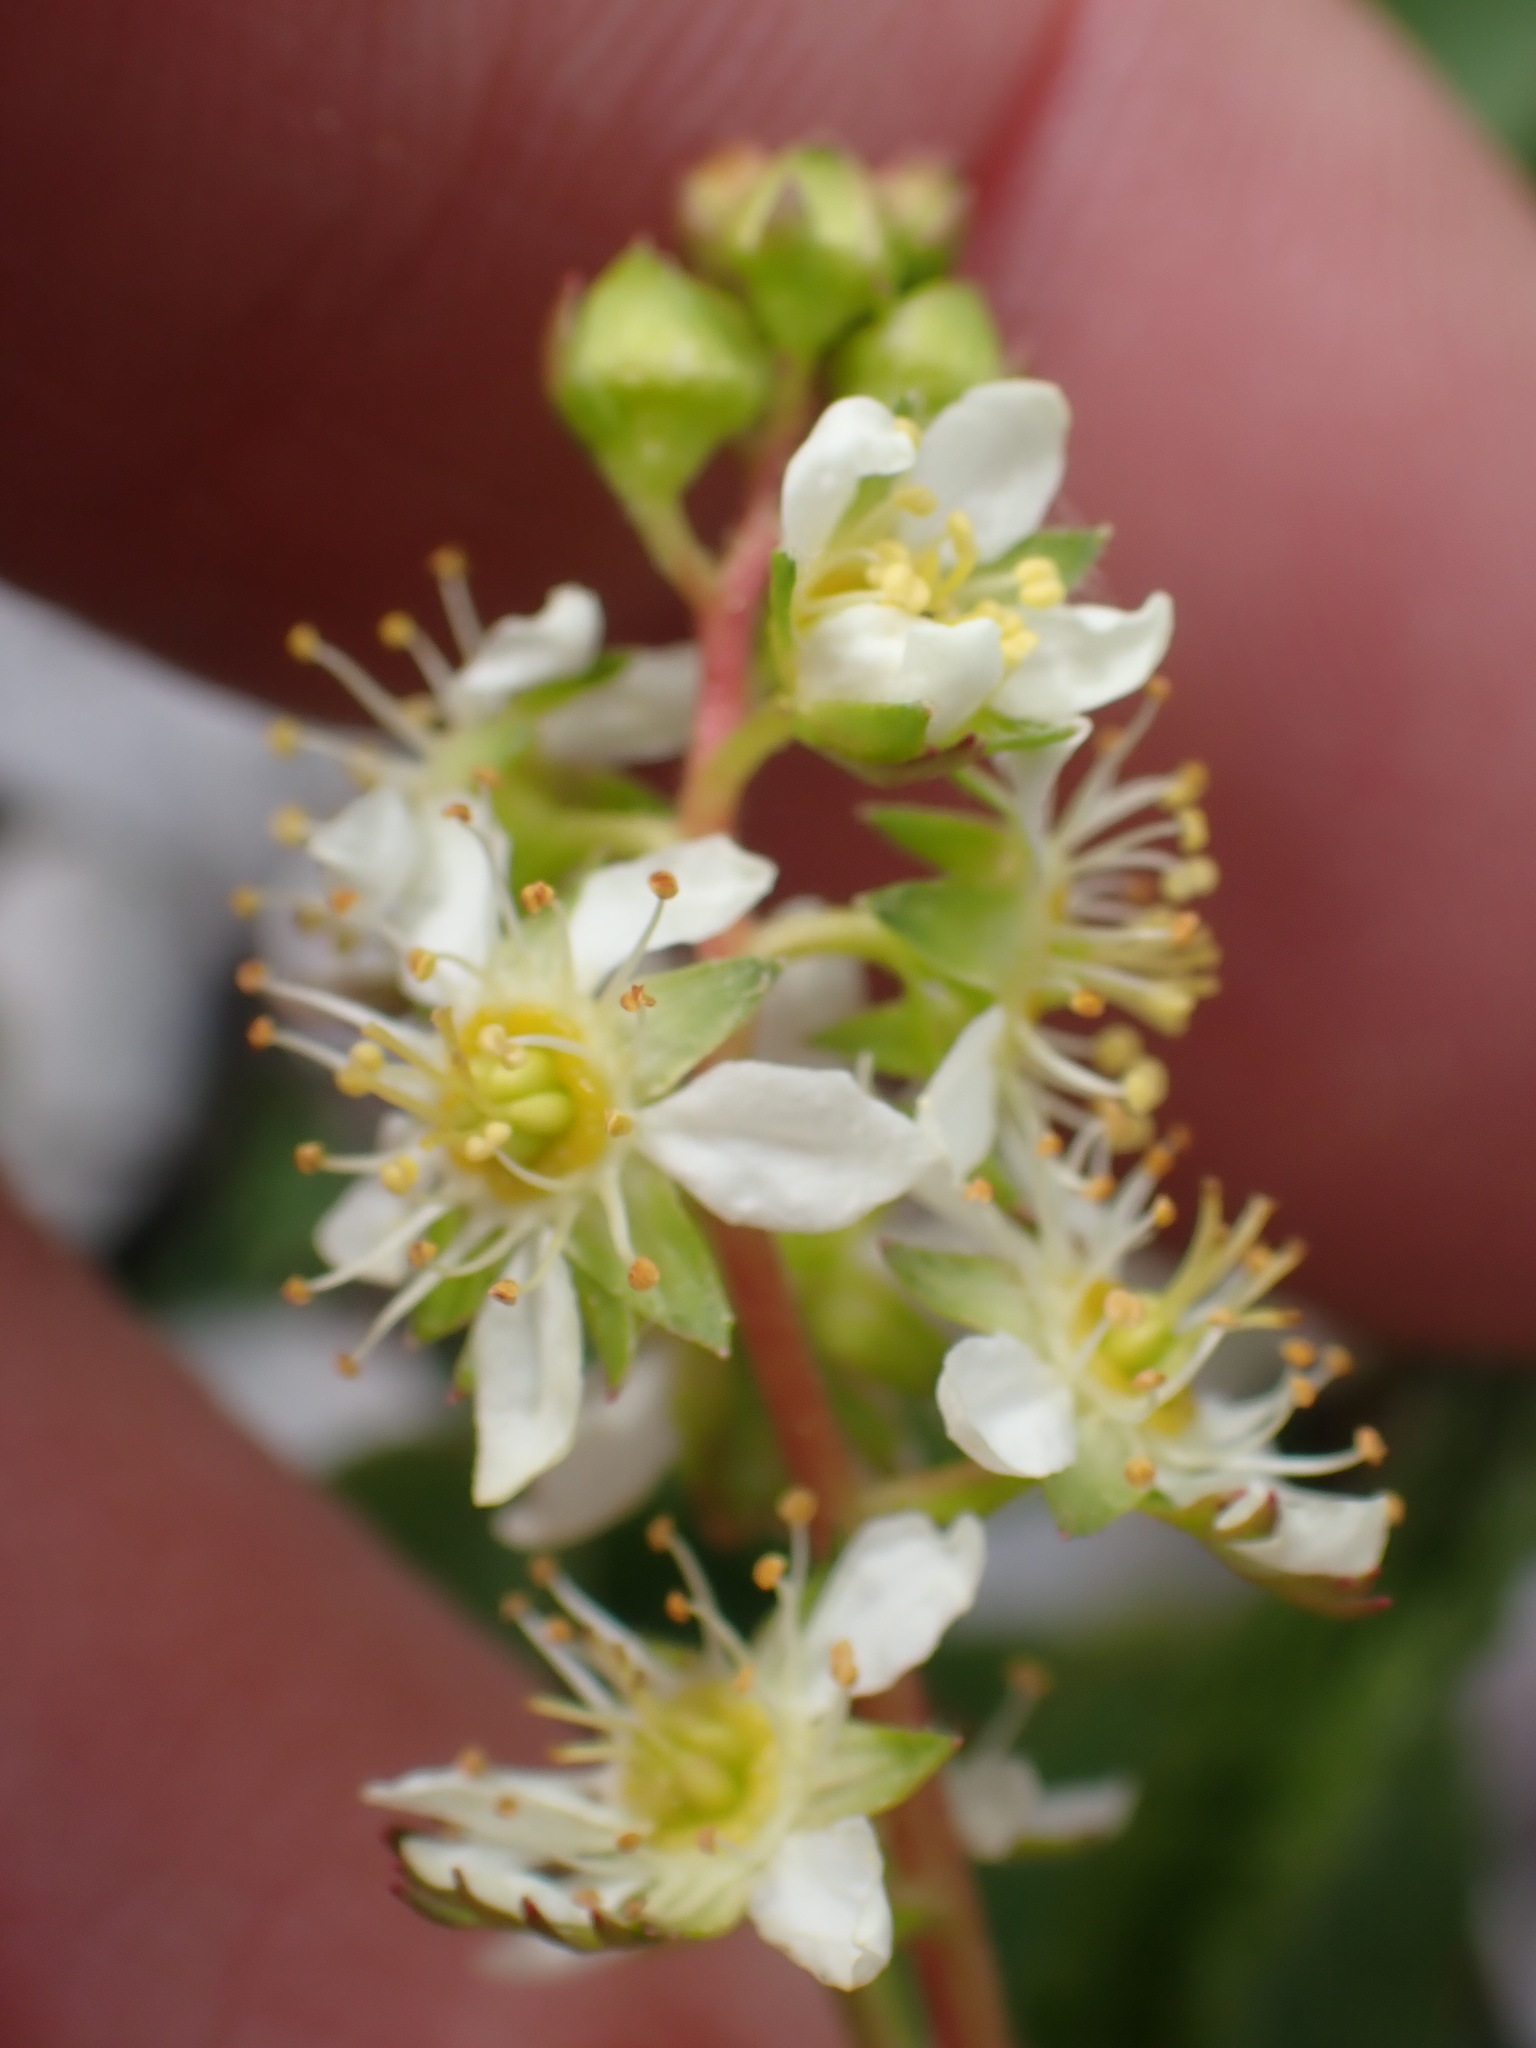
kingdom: Plantae
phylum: Tracheophyta
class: Magnoliopsida
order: Rosales
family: Rosaceae
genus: Luetkea
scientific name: Luetkea pectinata
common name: Partridgefoot
